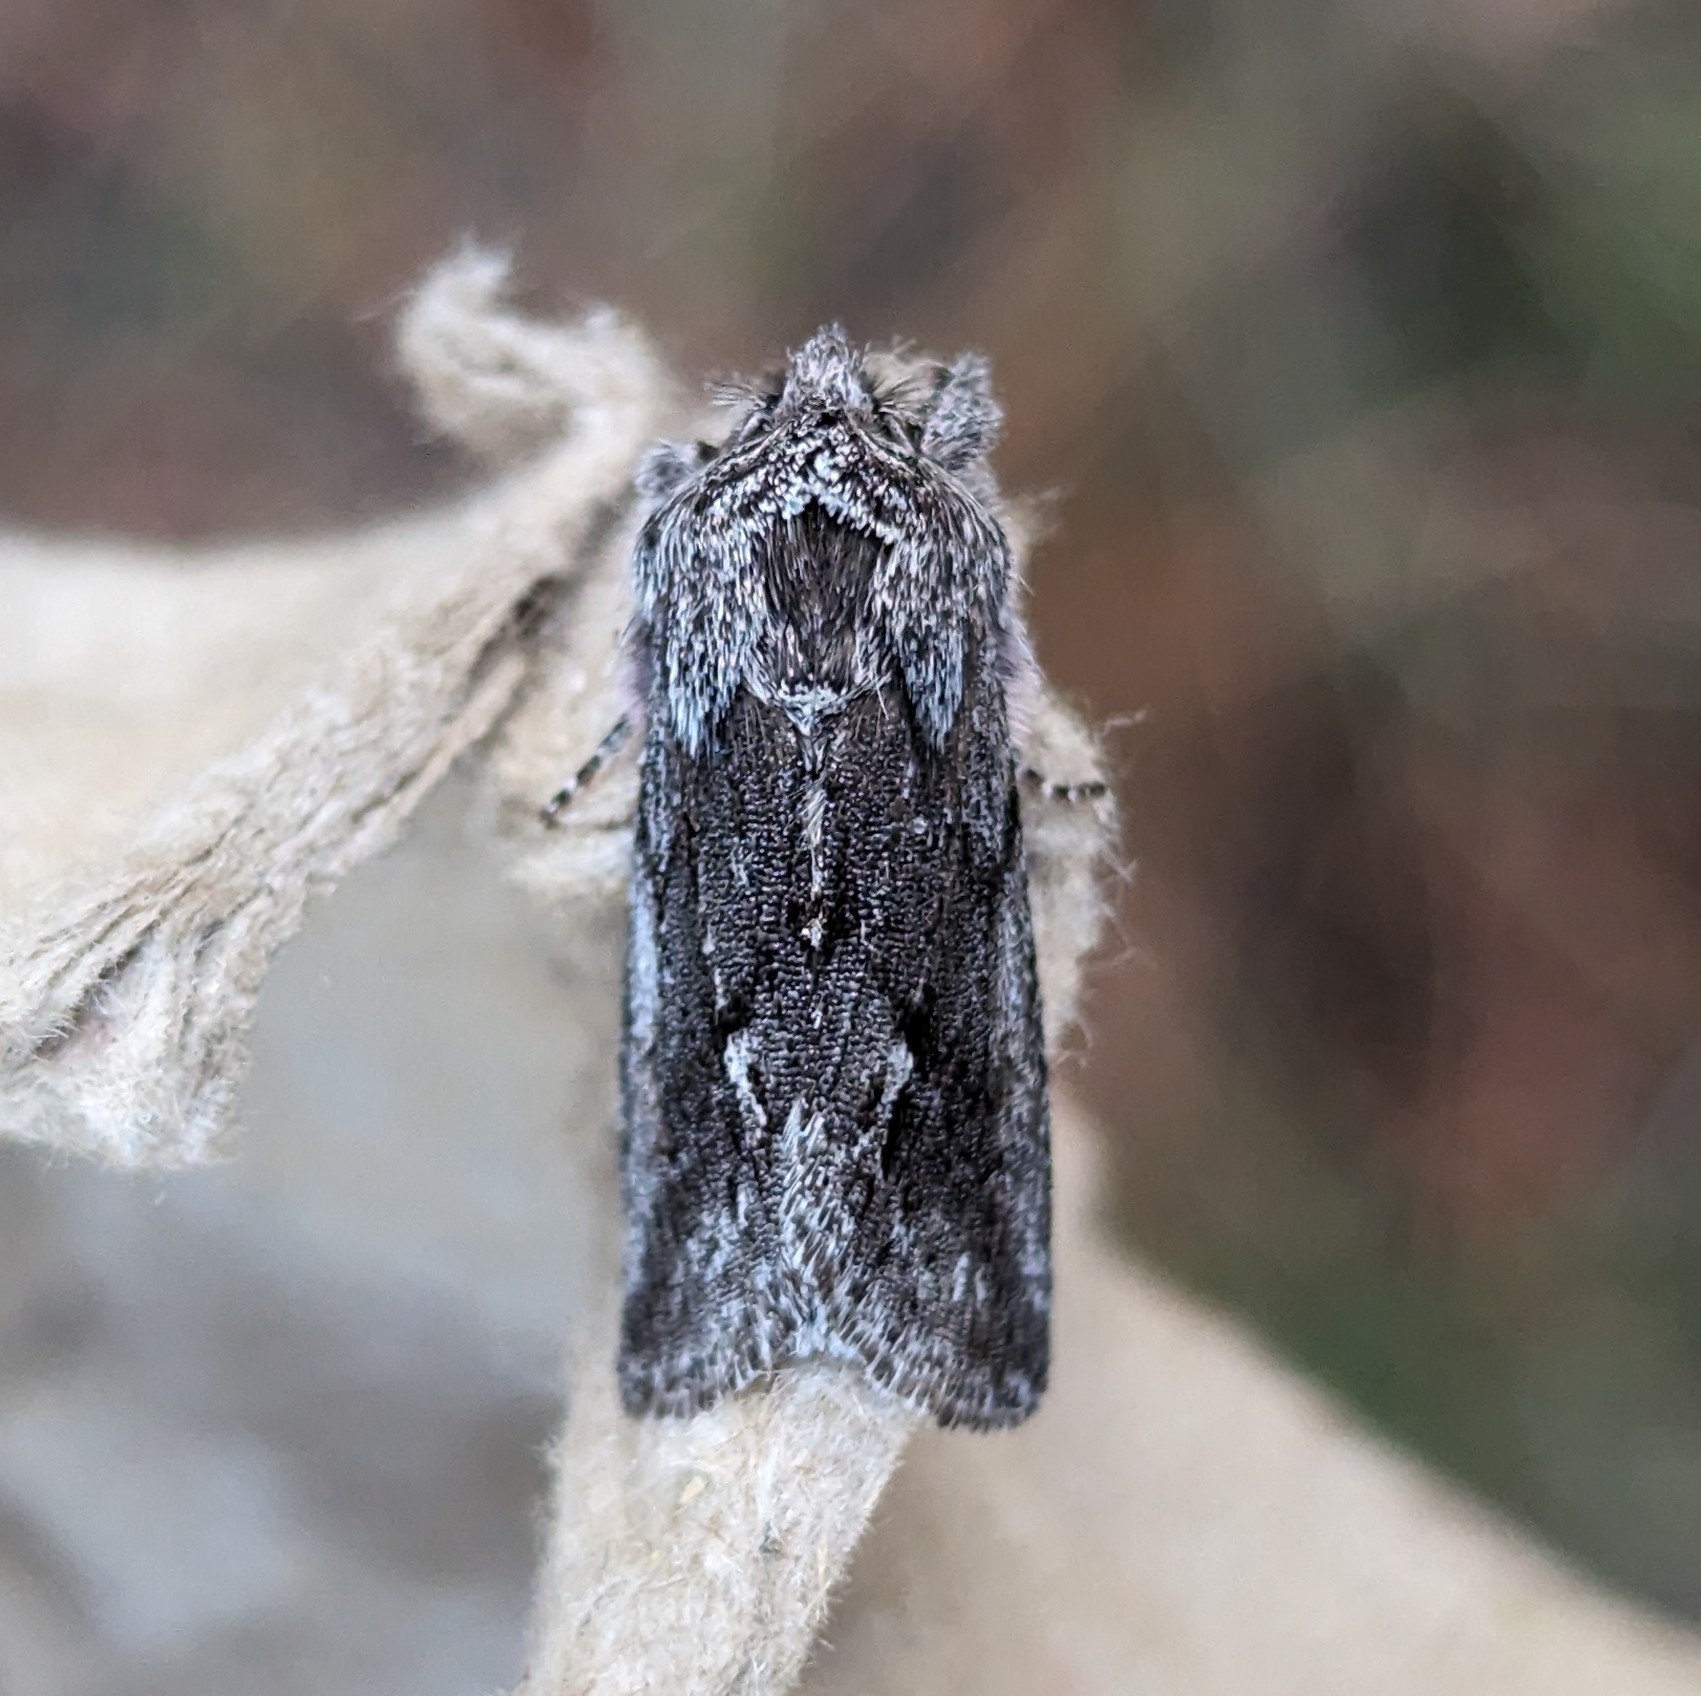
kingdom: Animalia
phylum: Arthropoda
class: Insecta
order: Lepidoptera
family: Noctuidae
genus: Pleromelloida
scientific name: Pleromelloida bonuscula
